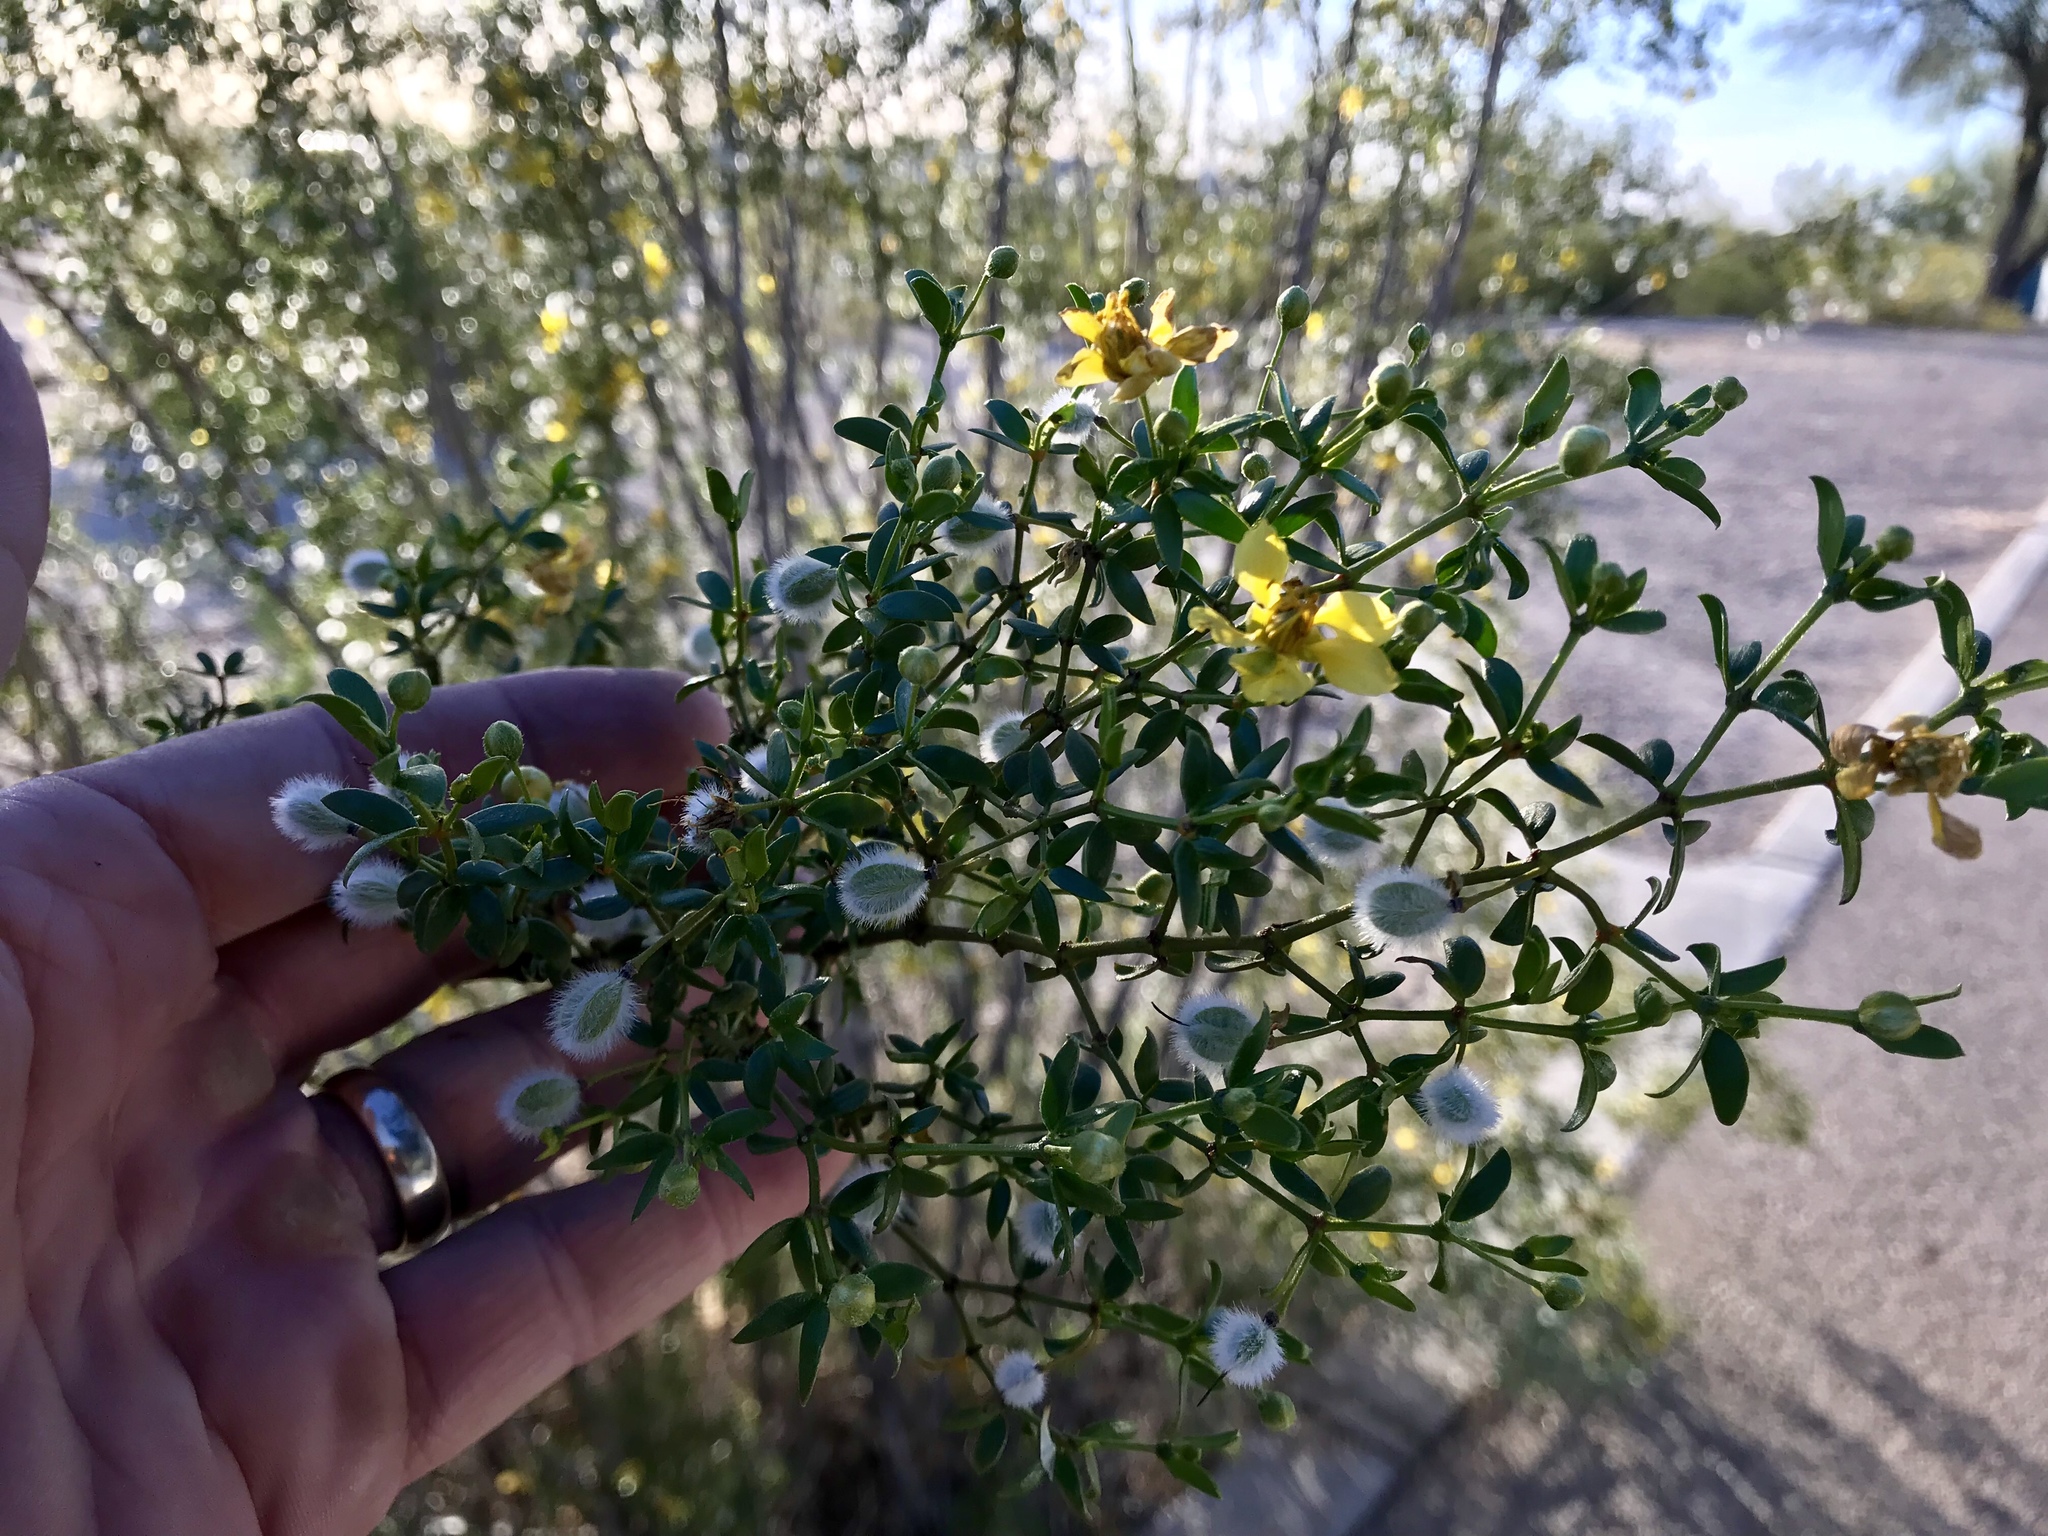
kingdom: Plantae
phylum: Tracheophyta
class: Magnoliopsida
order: Zygophyllales
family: Zygophyllaceae
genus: Larrea
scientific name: Larrea tridentata
